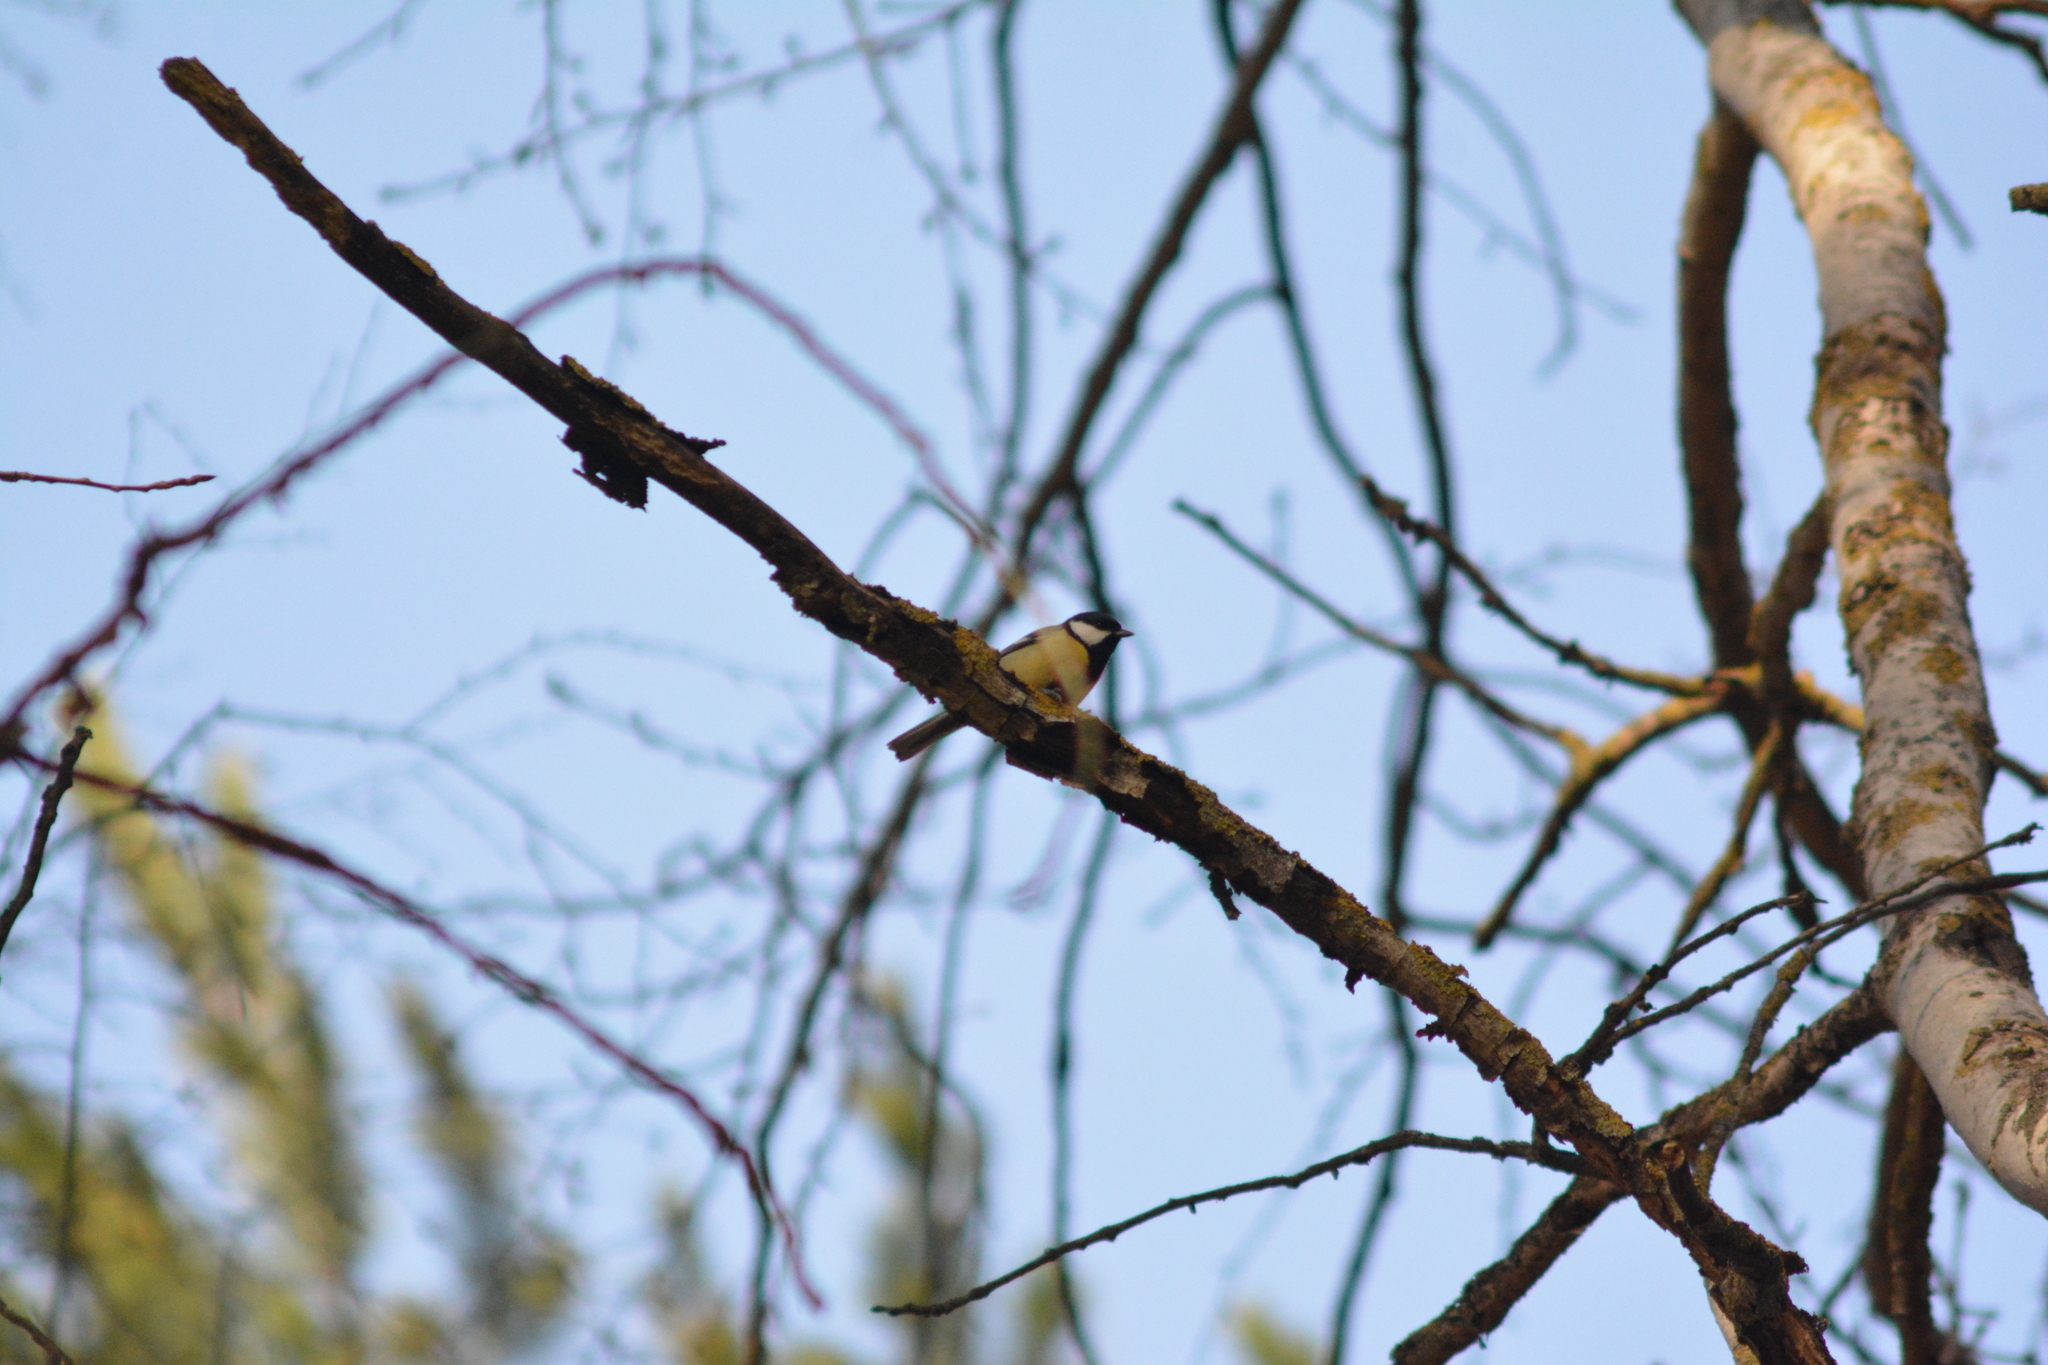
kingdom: Animalia
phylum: Chordata
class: Aves
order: Passeriformes
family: Paridae
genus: Parus
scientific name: Parus major
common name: Great tit
